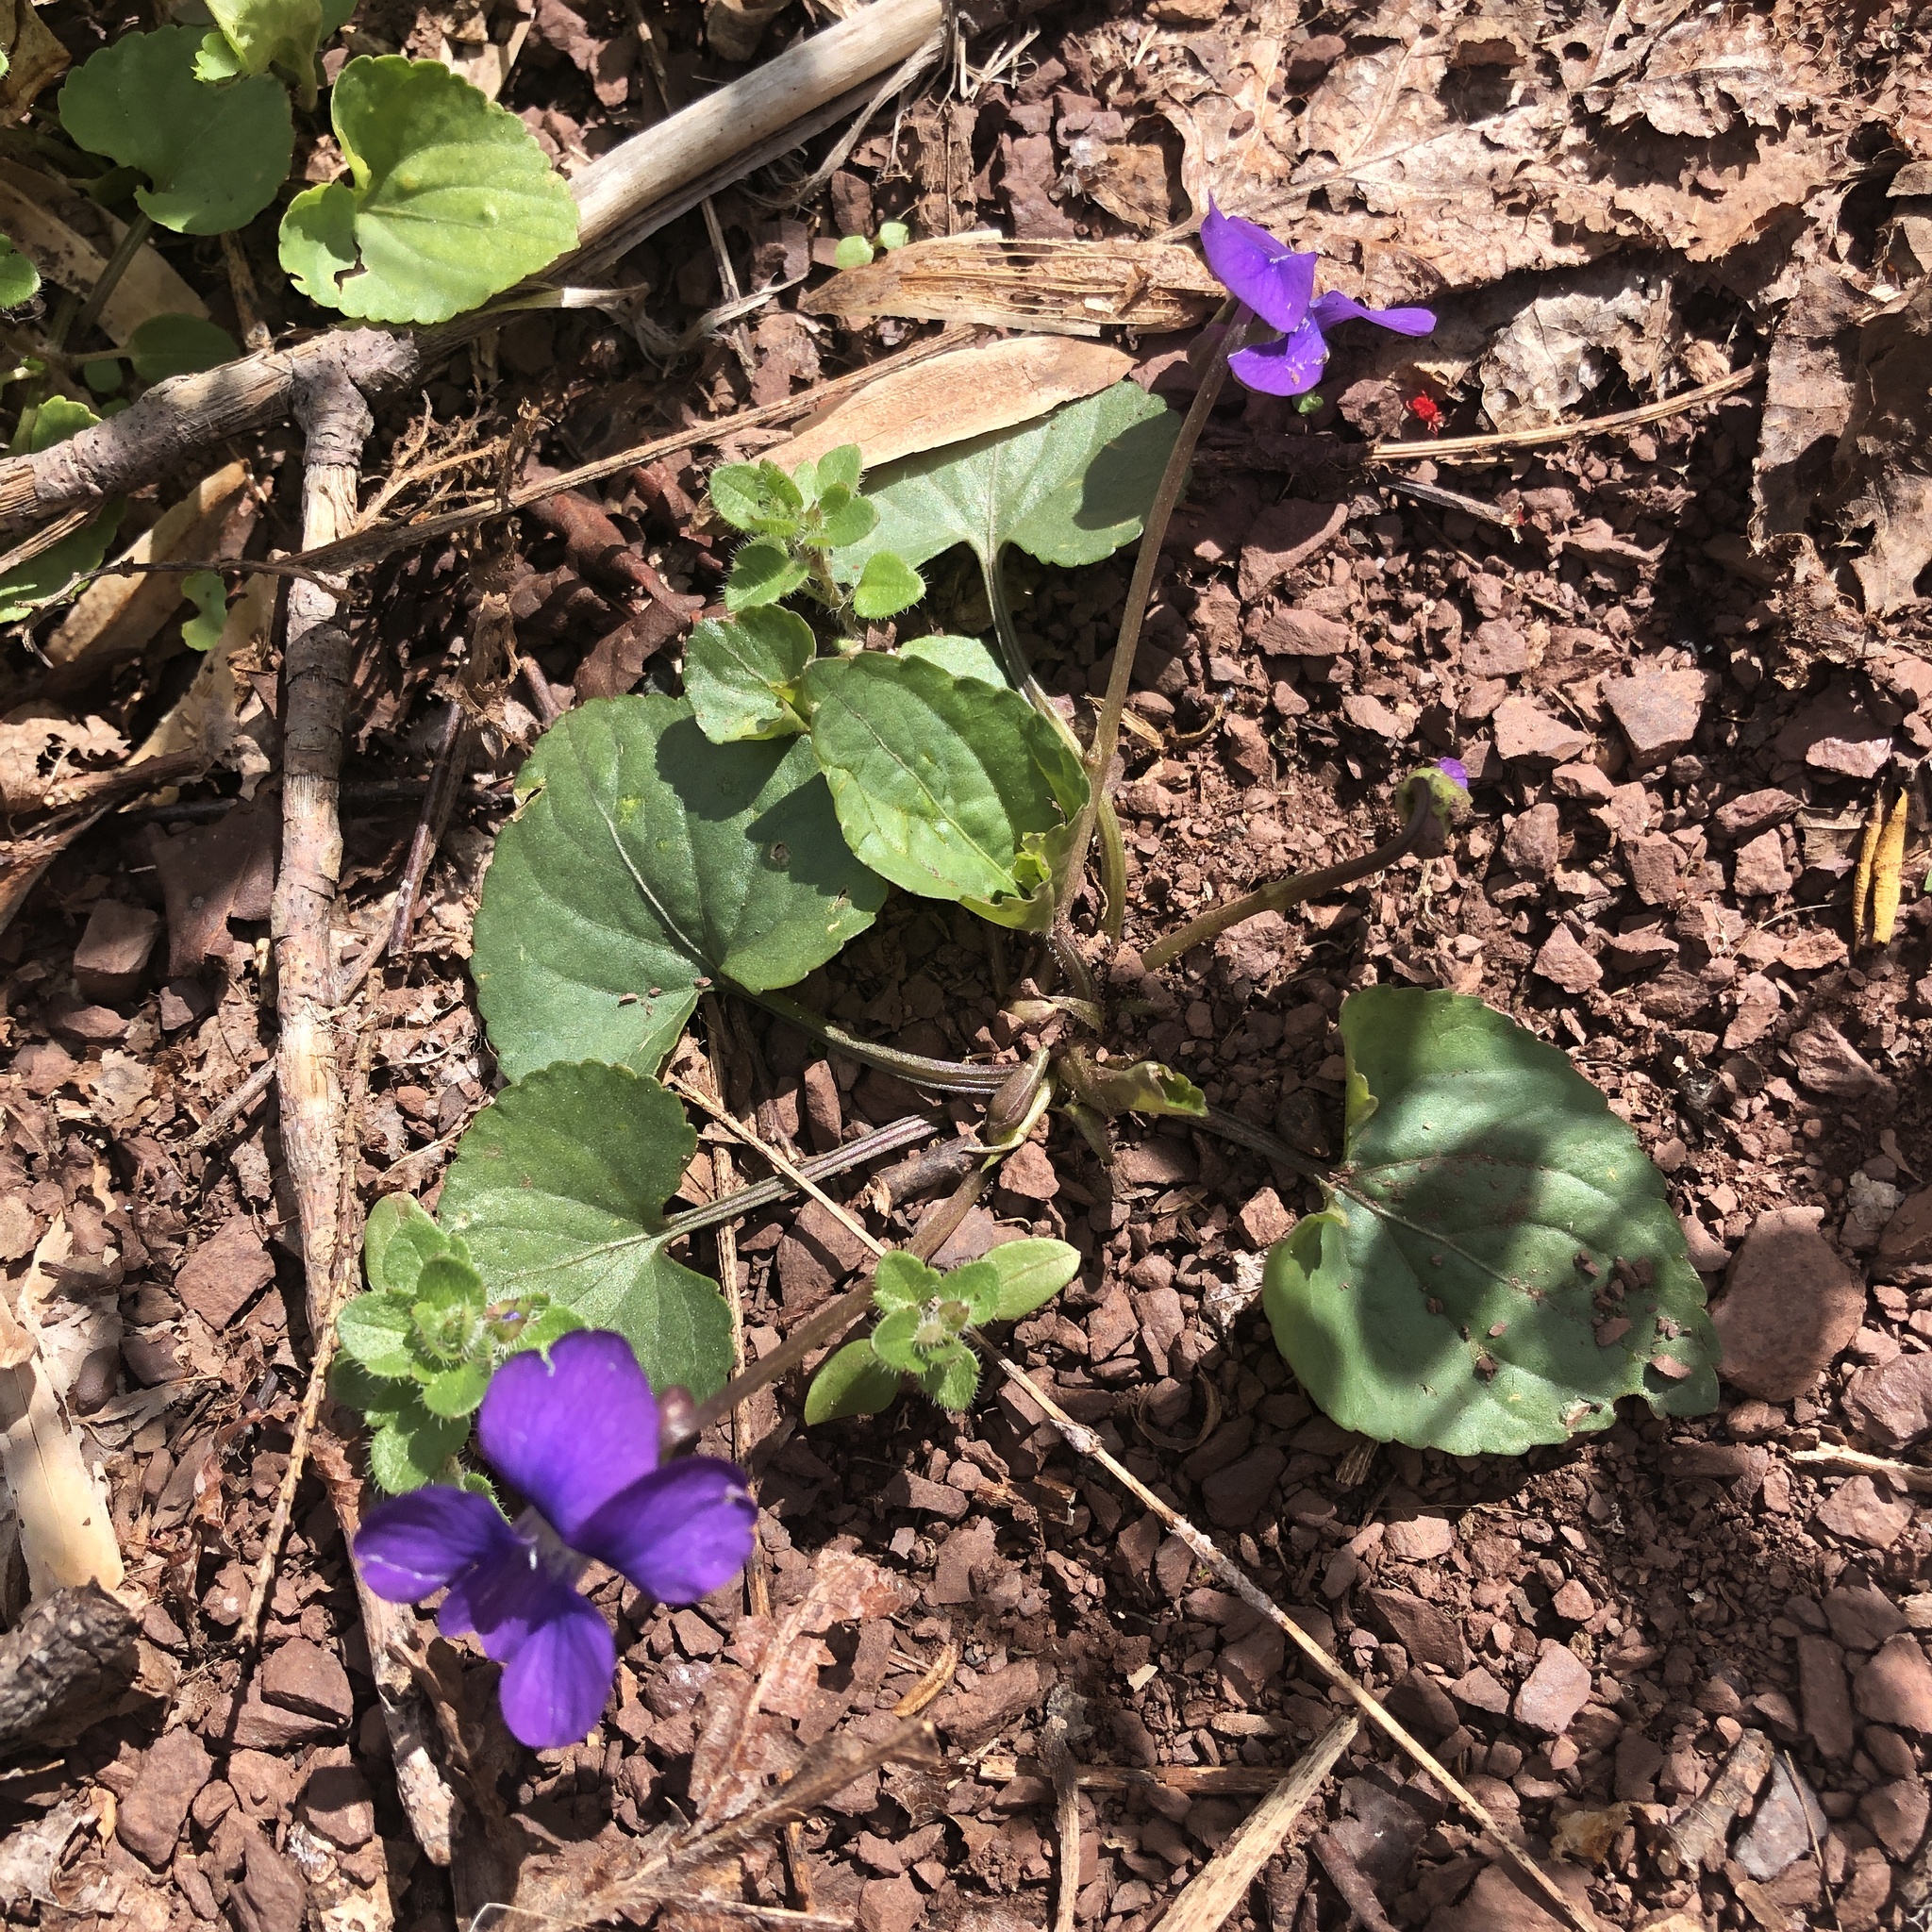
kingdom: Plantae
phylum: Tracheophyta
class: Magnoliopsida
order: Malpighiales
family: Violaceae
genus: Viola
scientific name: Viola sororia
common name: Dooryard violet
